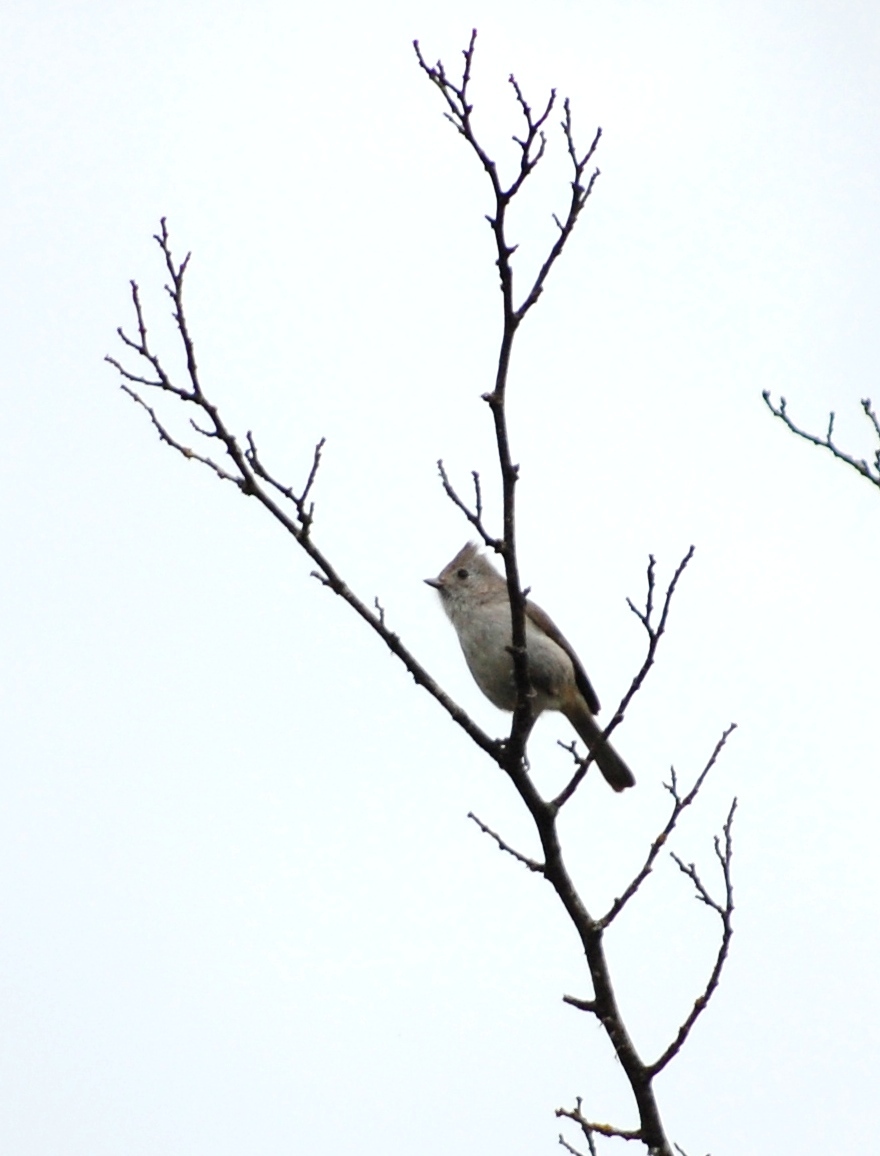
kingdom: Animalia
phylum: Chordata
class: Aves
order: Passeriformes
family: Paridae
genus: Baeolophus
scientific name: Baeolophus inornatus
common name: Oak titmouse
